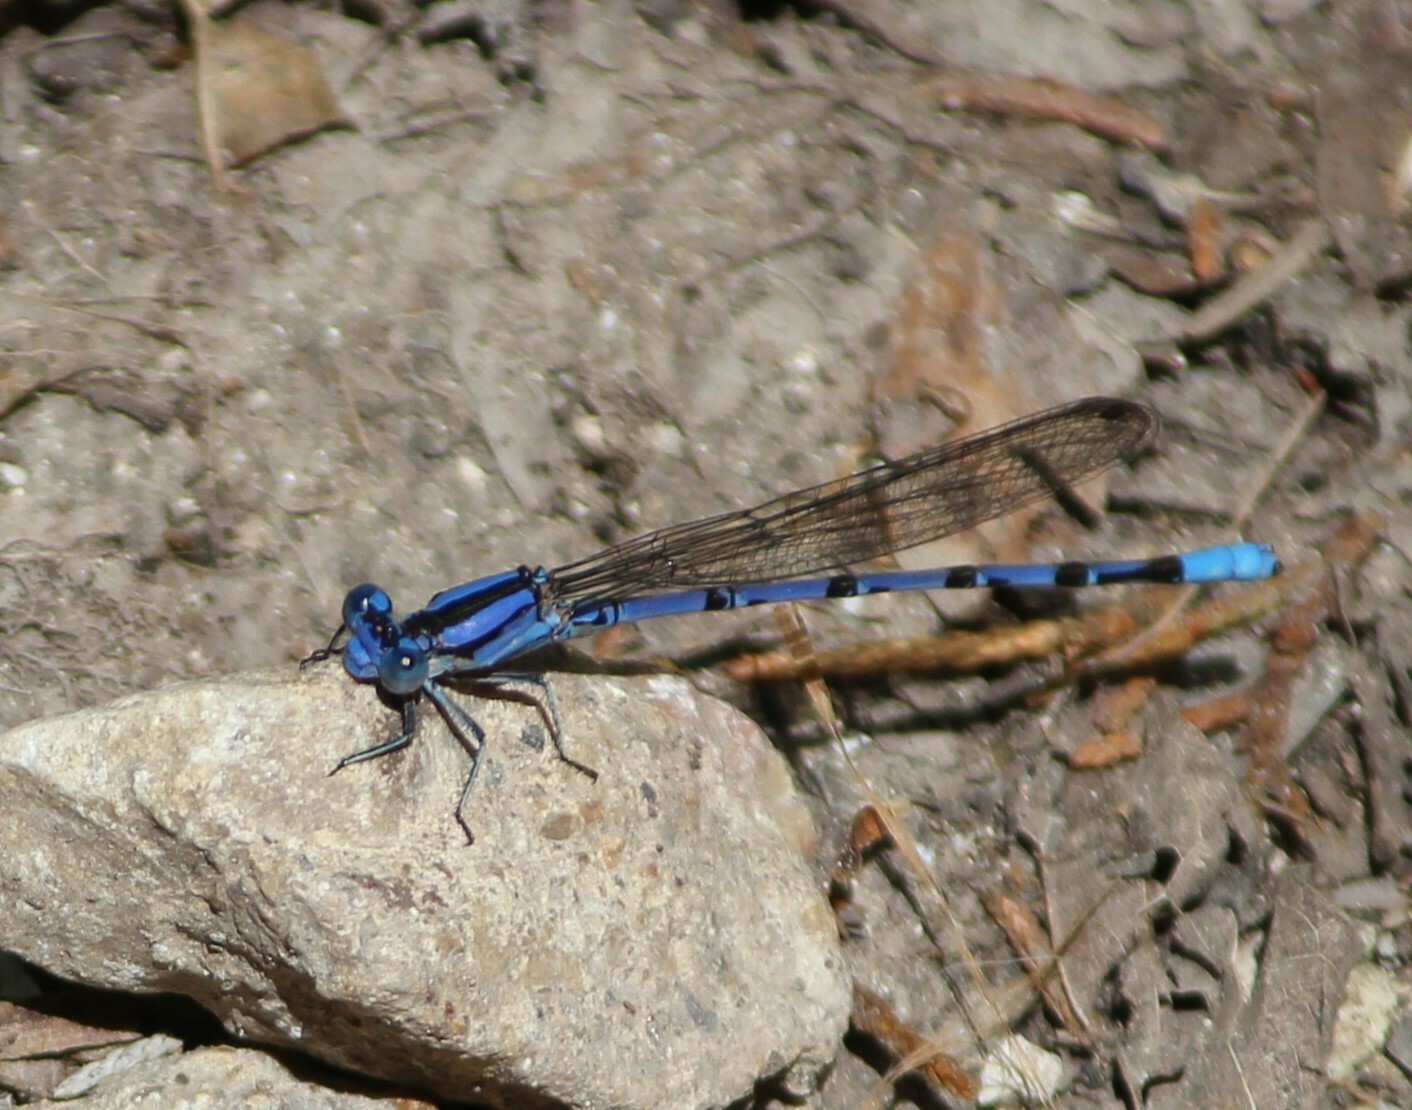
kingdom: Animalia
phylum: Arthropoda
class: Insecta
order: Odonata
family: Coenagrionidae
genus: Argia
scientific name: Argia funebris
